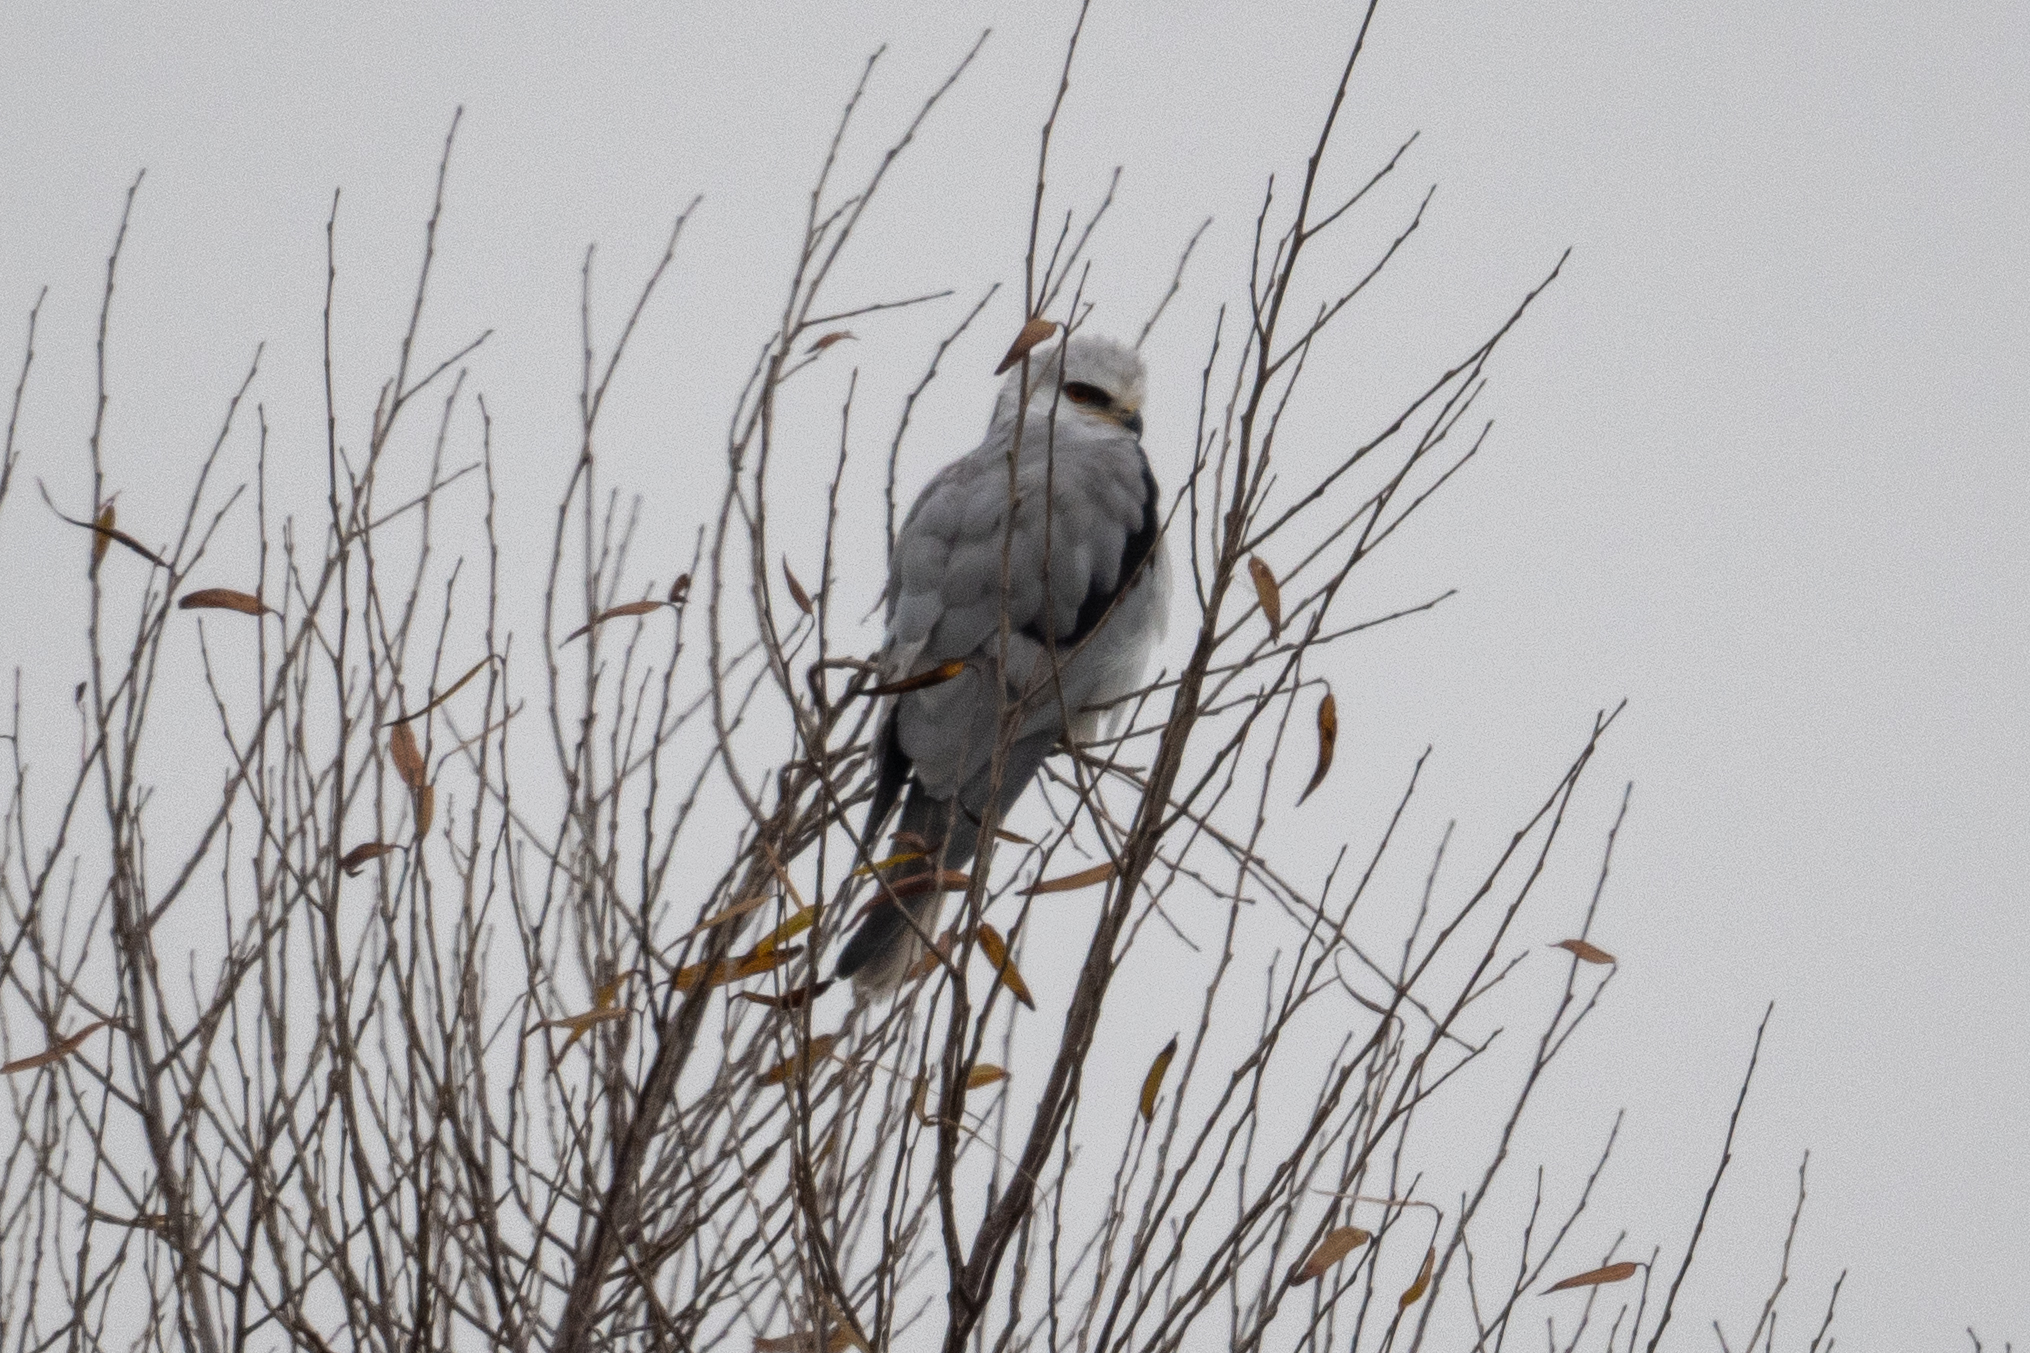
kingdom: Animalia
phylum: Chordata
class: Aves
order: Accipitriformes
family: Accipitridae
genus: Elanus
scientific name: Elanus leucurus
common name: White-tailed kite
